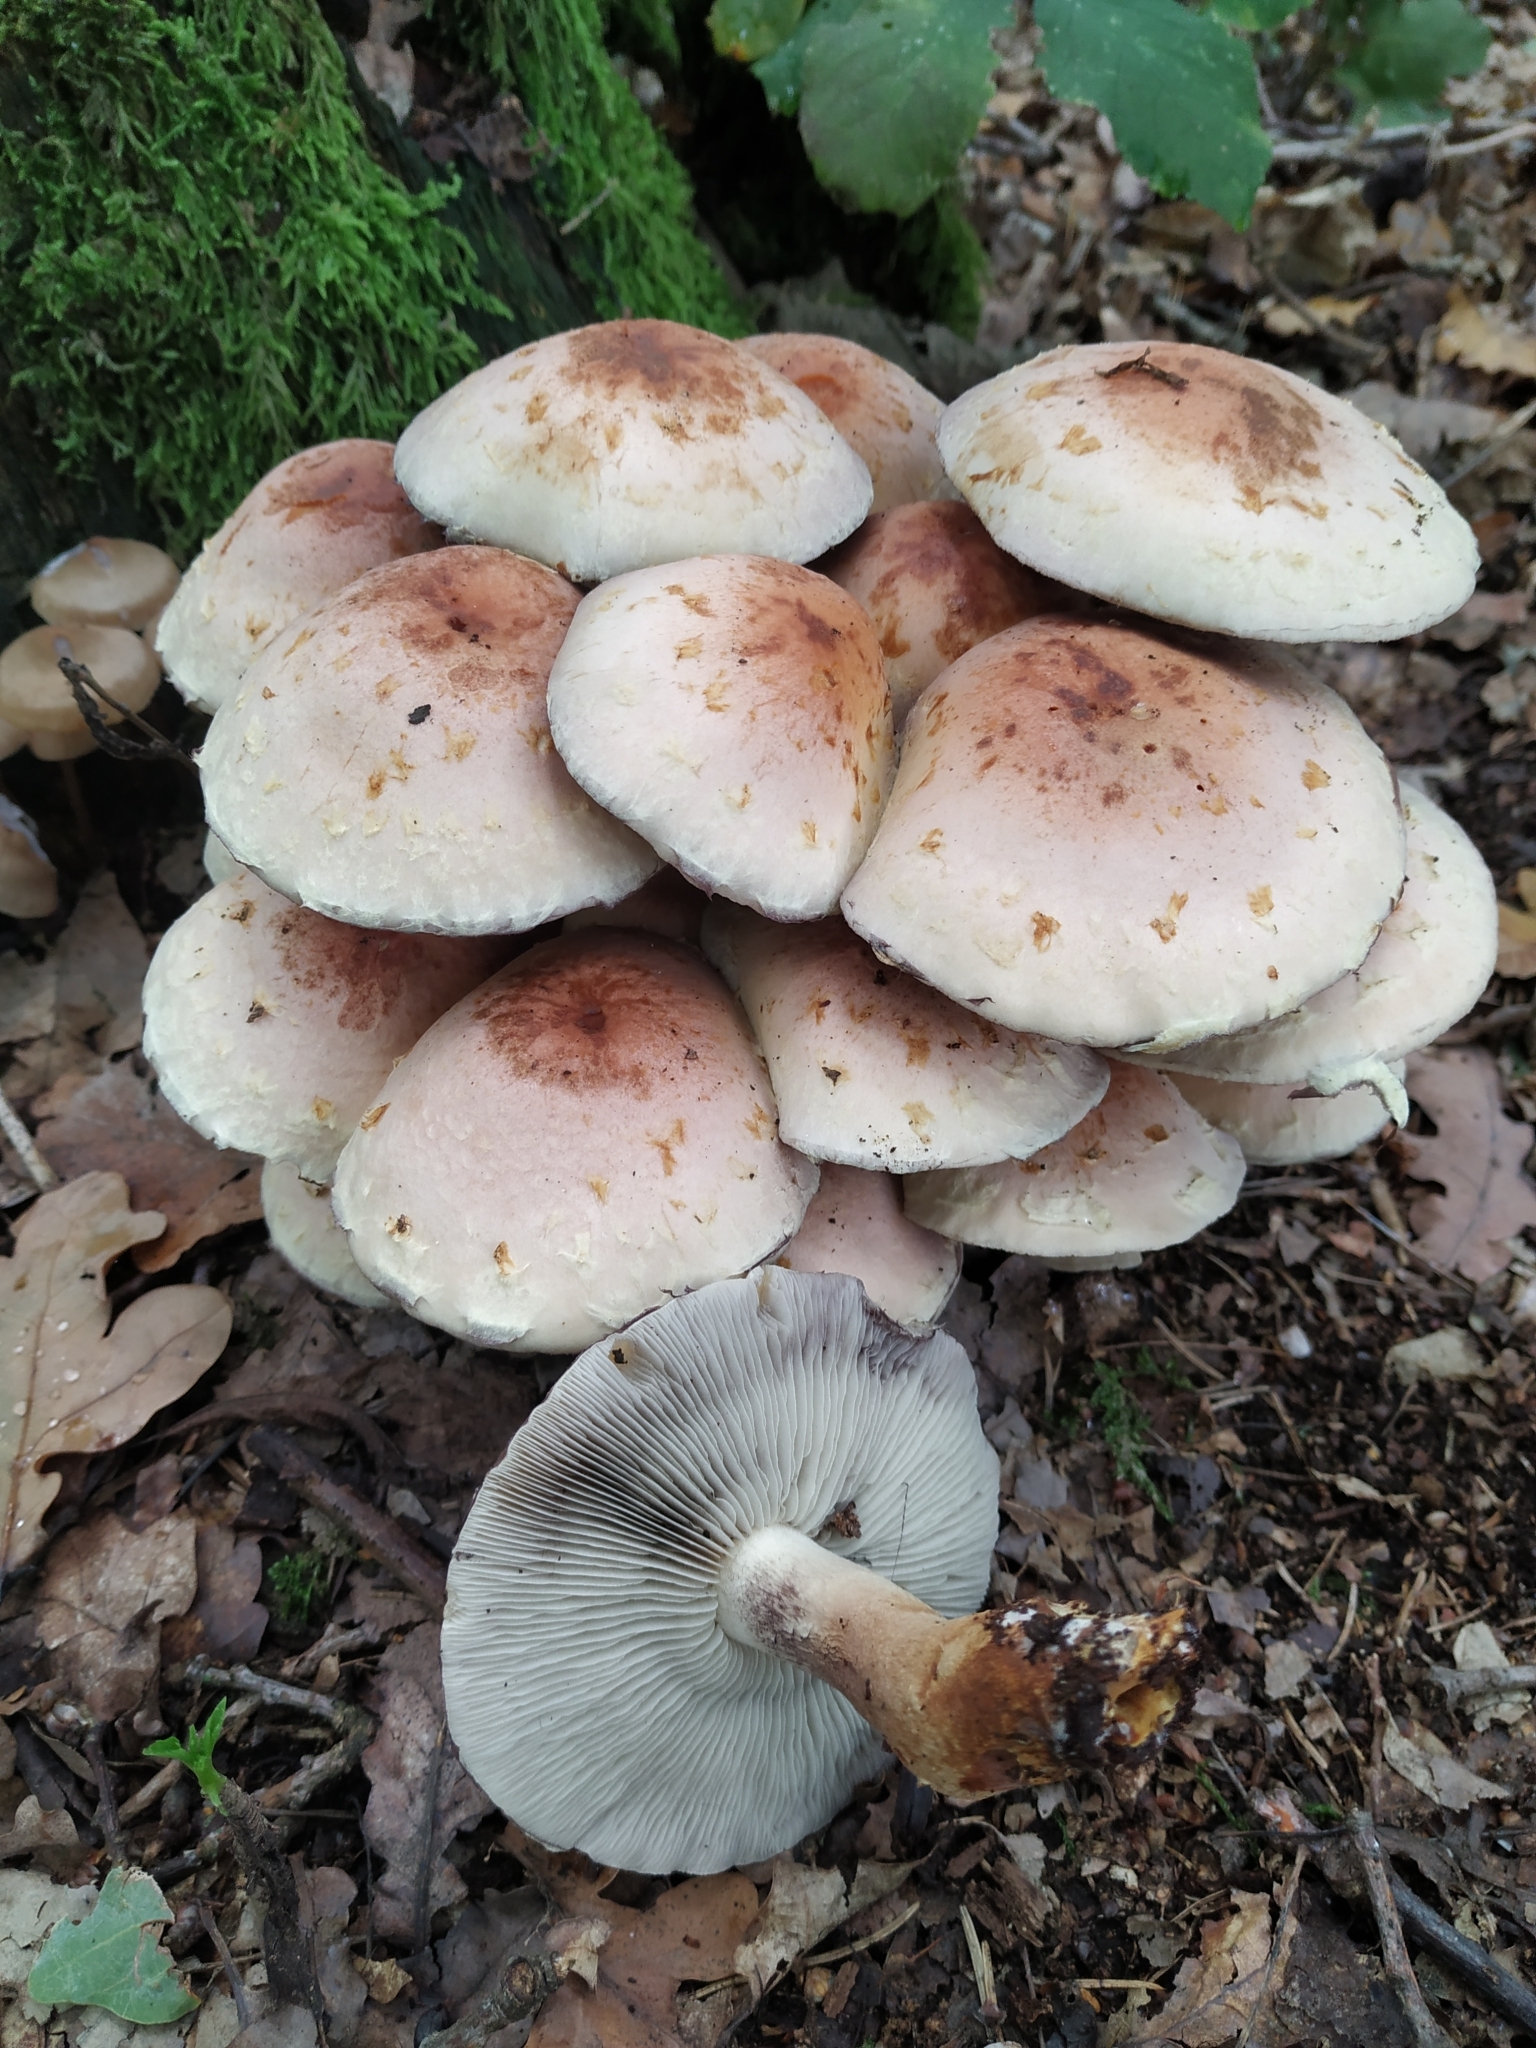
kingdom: Fungi
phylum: Basidiomycota
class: Agaricomycetes
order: Agaricales
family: Strophariaceae
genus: Hypholoma
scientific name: Hypholoma lateritium
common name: Brick caps
